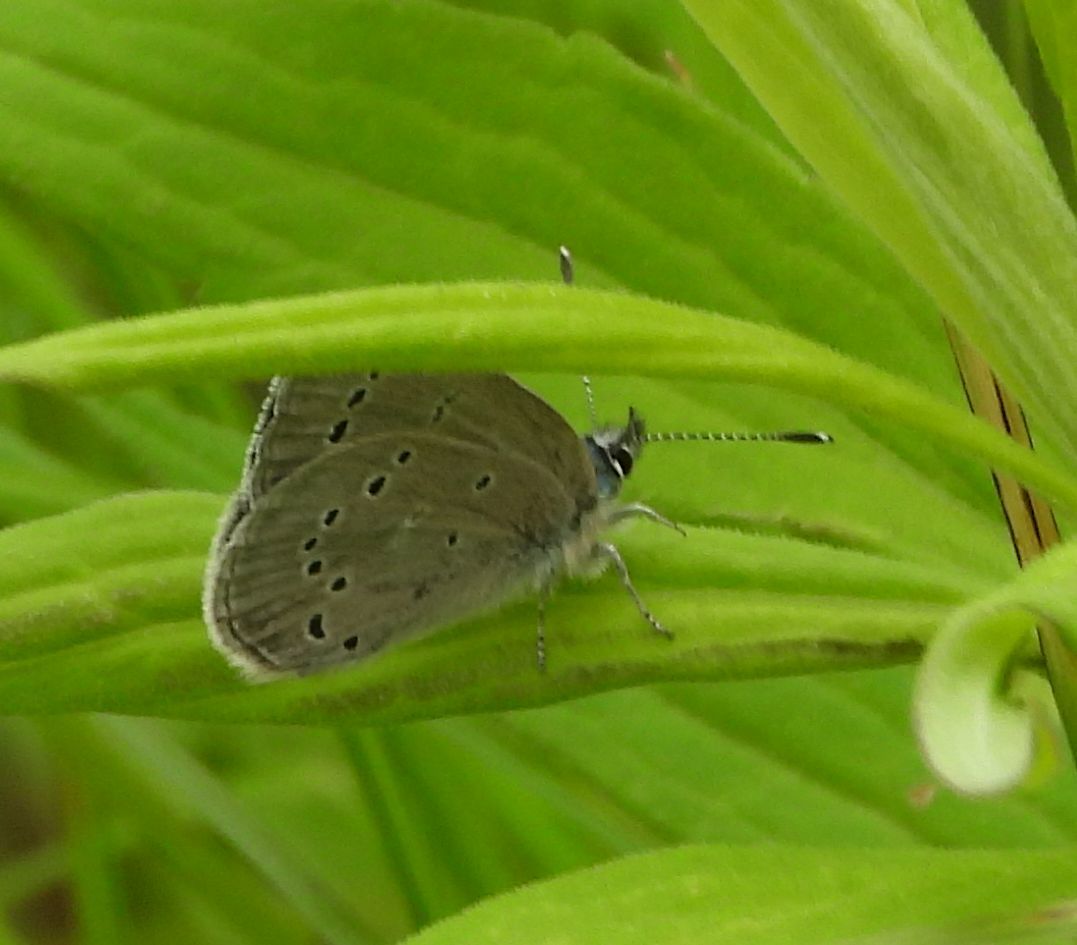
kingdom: Animalia
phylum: Arthropoda
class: Insecta
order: Lepidoptera
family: Lycaenidae
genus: Glaucopsyche
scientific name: Glaucopsyche lygdamus
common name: Silvery blue
